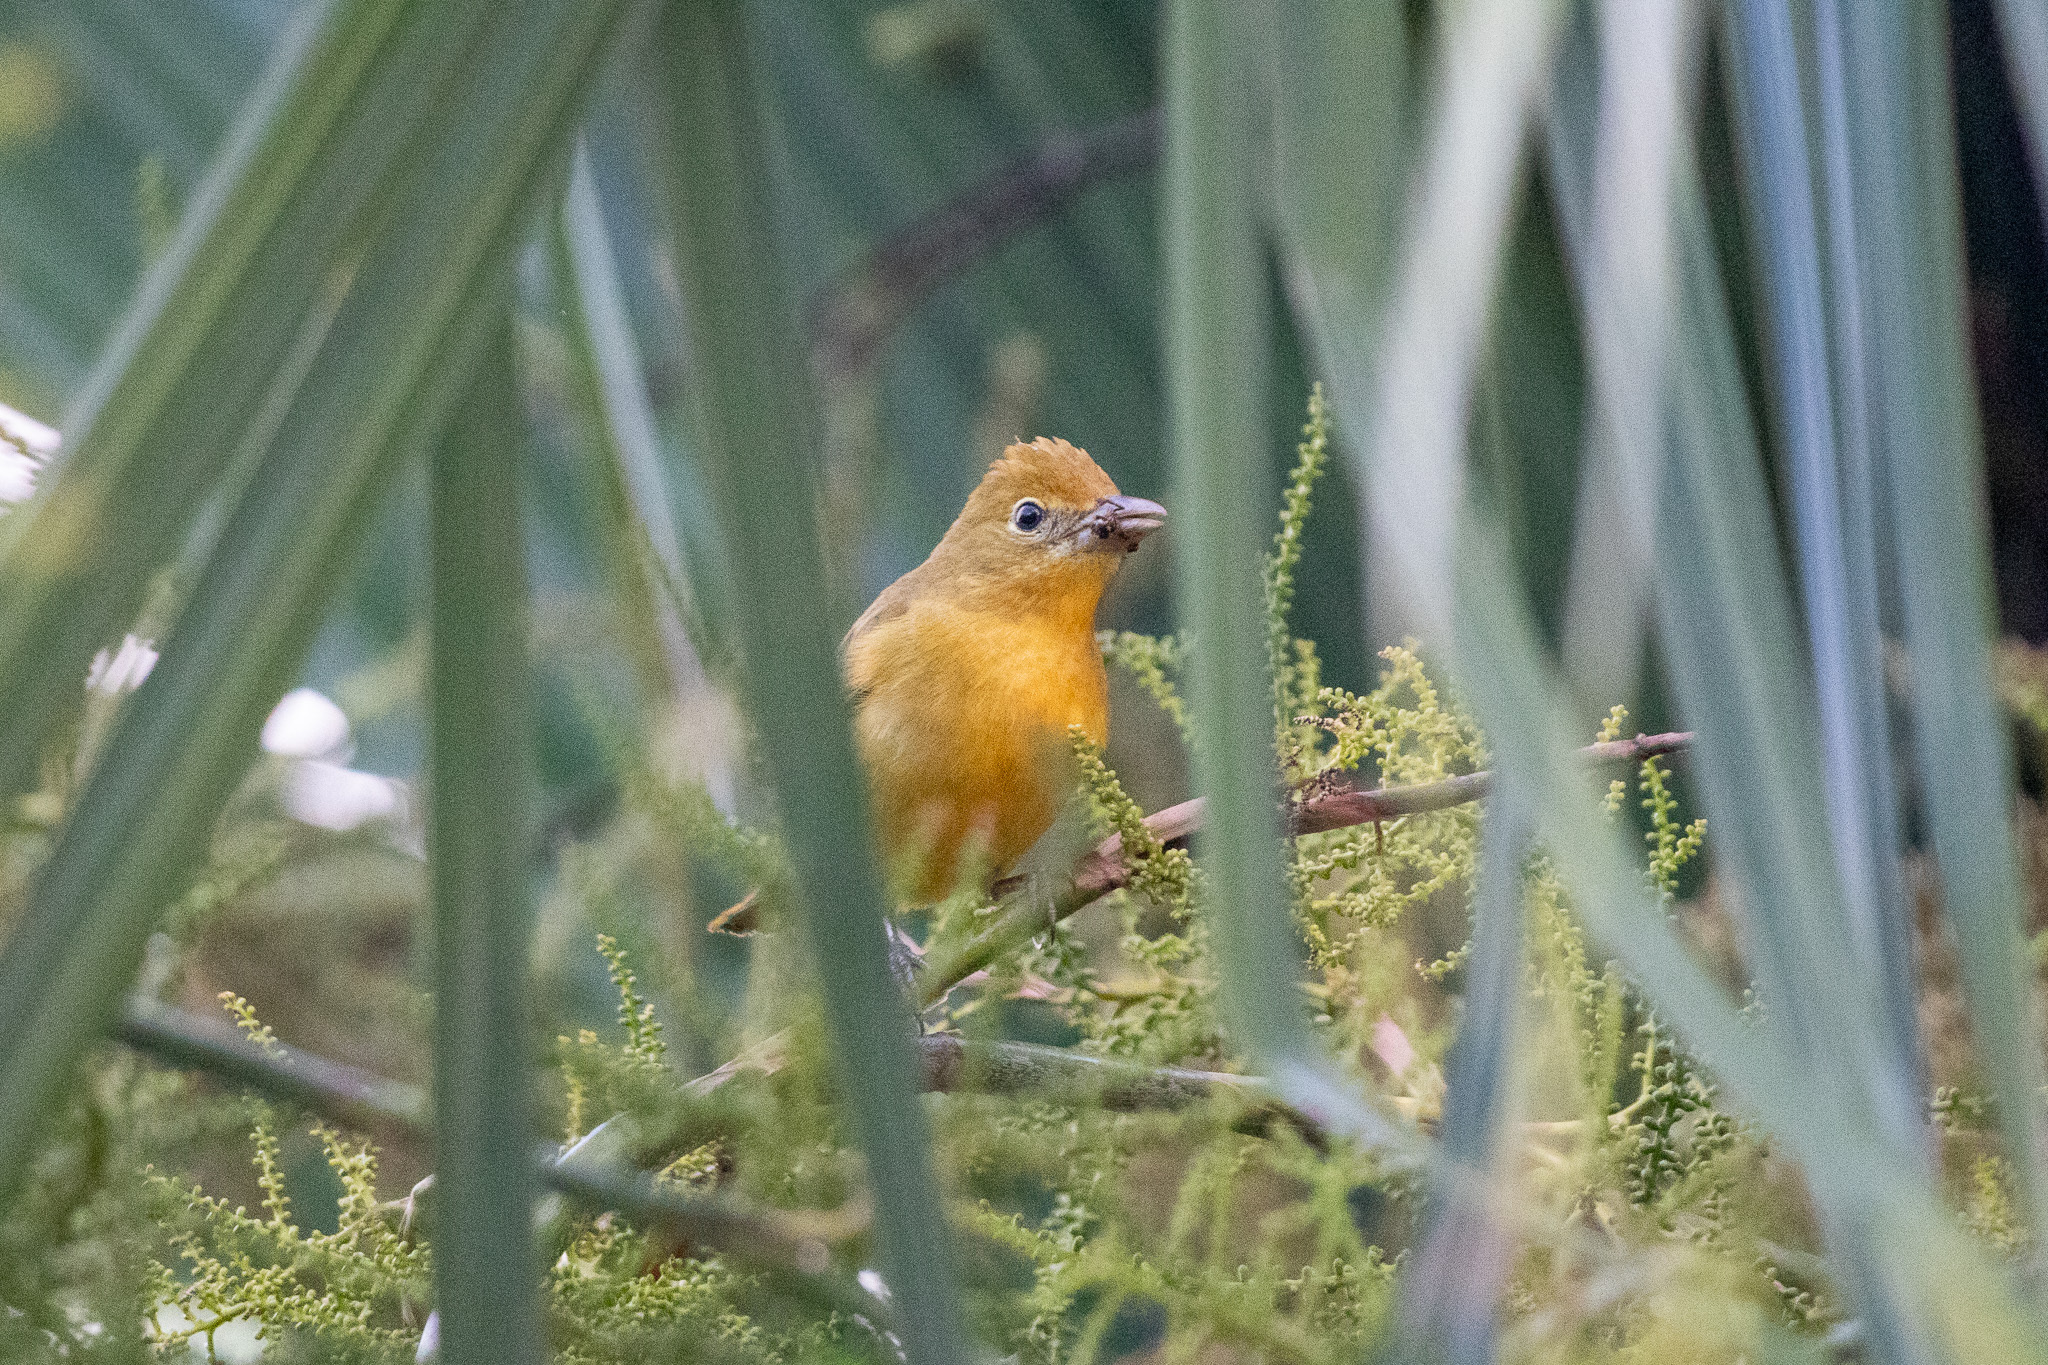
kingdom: Animalia
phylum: Chordata
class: Aves
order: Passeriformes
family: Cardinalidae
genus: Piranga
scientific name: Piranga rubra
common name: Summer tanager
